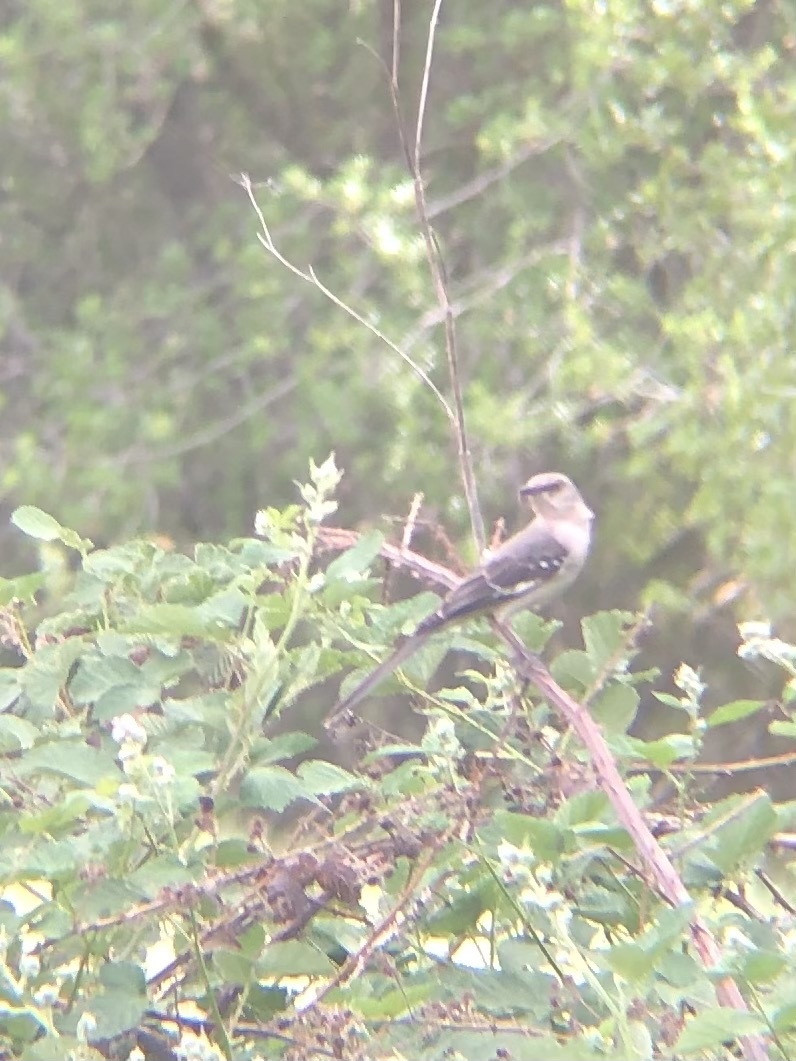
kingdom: Animalia
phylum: Chordata
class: Aves
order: Passeriformes
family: Mimidae
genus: Mimus
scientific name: Mimus polyglottos
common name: Northern mockingbird
